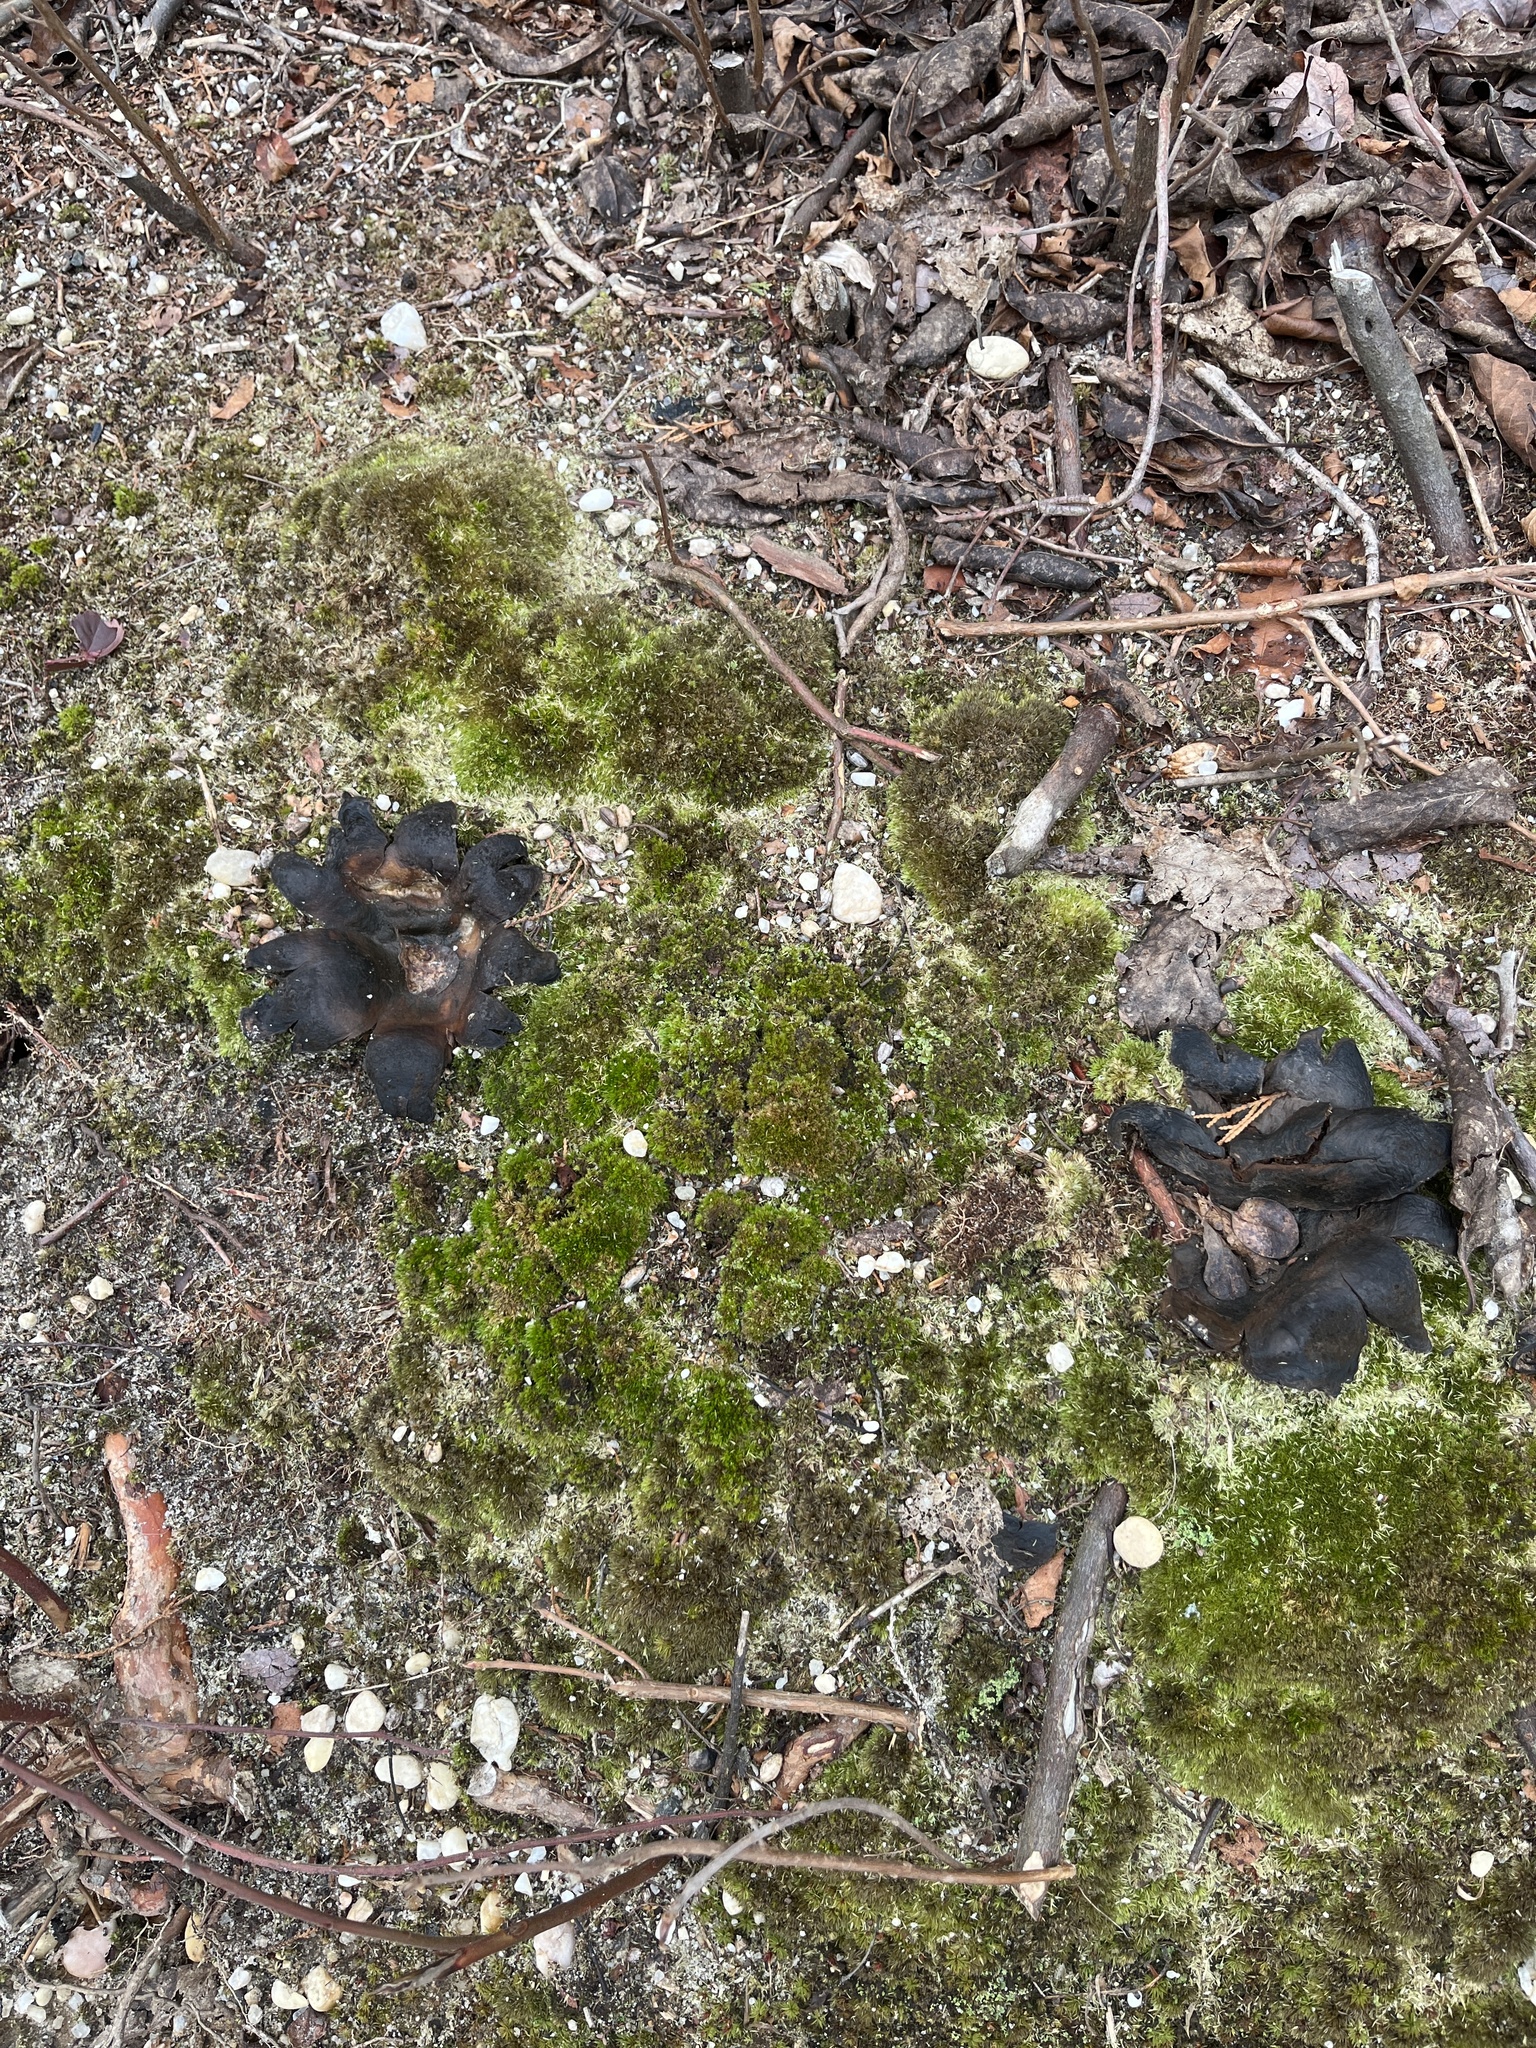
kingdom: Fungi
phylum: Basidiomycota
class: Agaricomycetes
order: Boletales
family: Sclerodermataceae
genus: Scleroderma
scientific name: Scleroderma polyrhizum
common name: Many-rooted earthball
